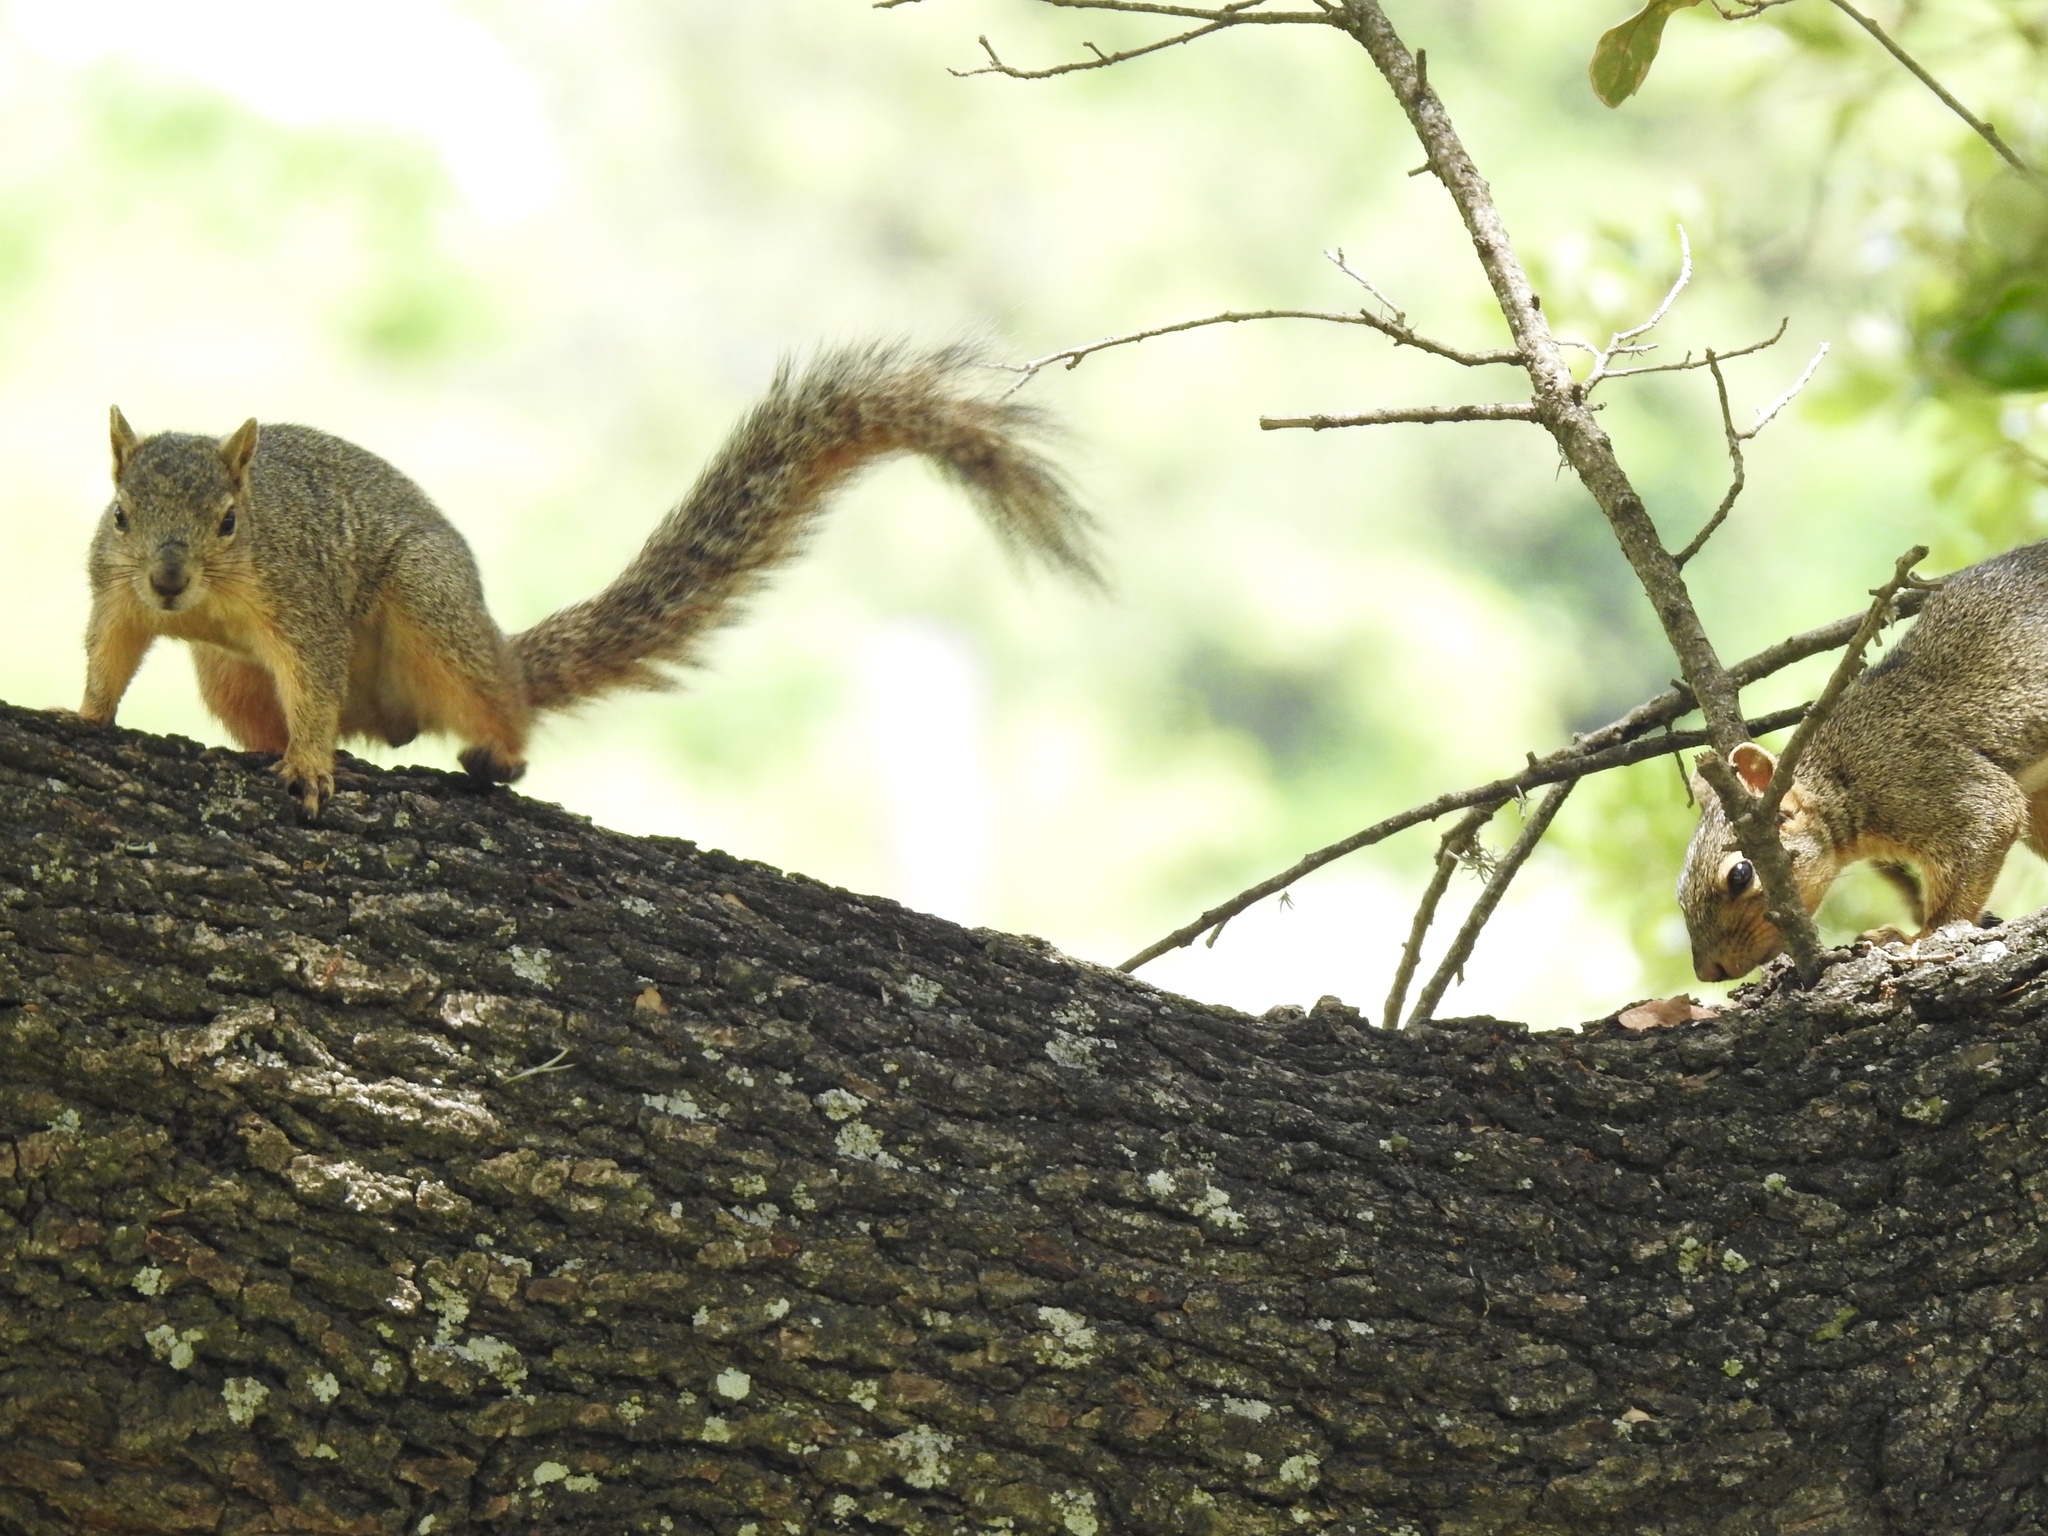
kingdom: Animalia
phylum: Chordata
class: Mammalia
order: Rodentia
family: Sciuridae
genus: Sciurus
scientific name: Sciurus niger
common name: Fox squirrel
